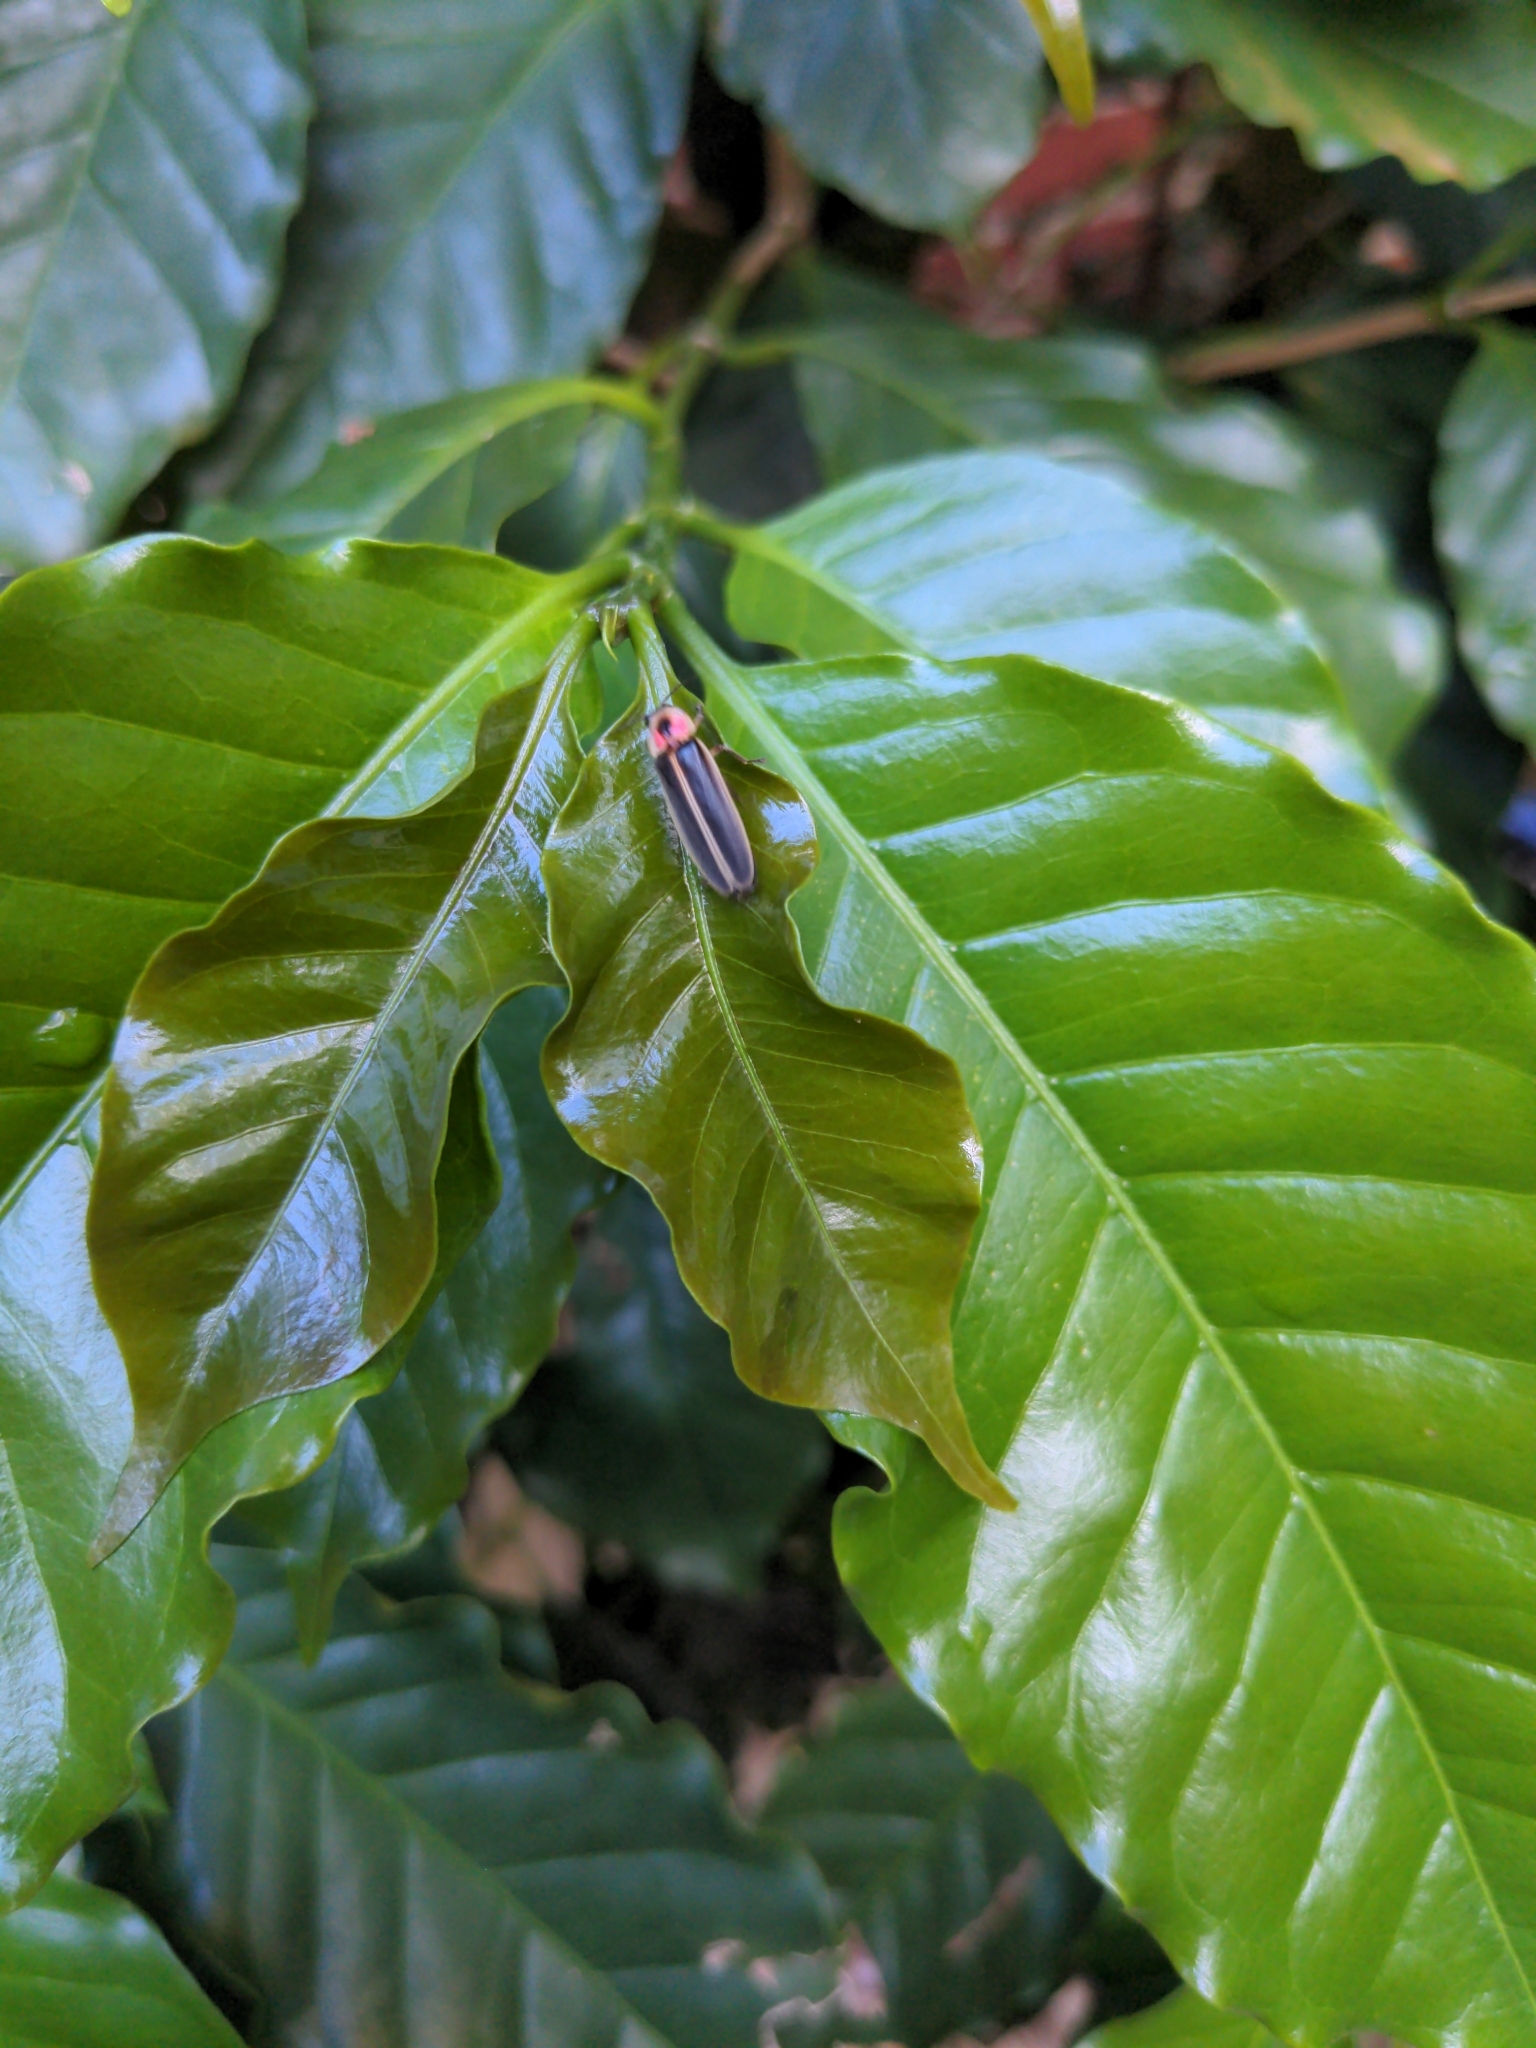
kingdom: Animalia
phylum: Arthropoda
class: Insecta
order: Coleoptera
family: Lampyridae
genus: Photinus
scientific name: Photinus pyralis
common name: Big dipper firefly
